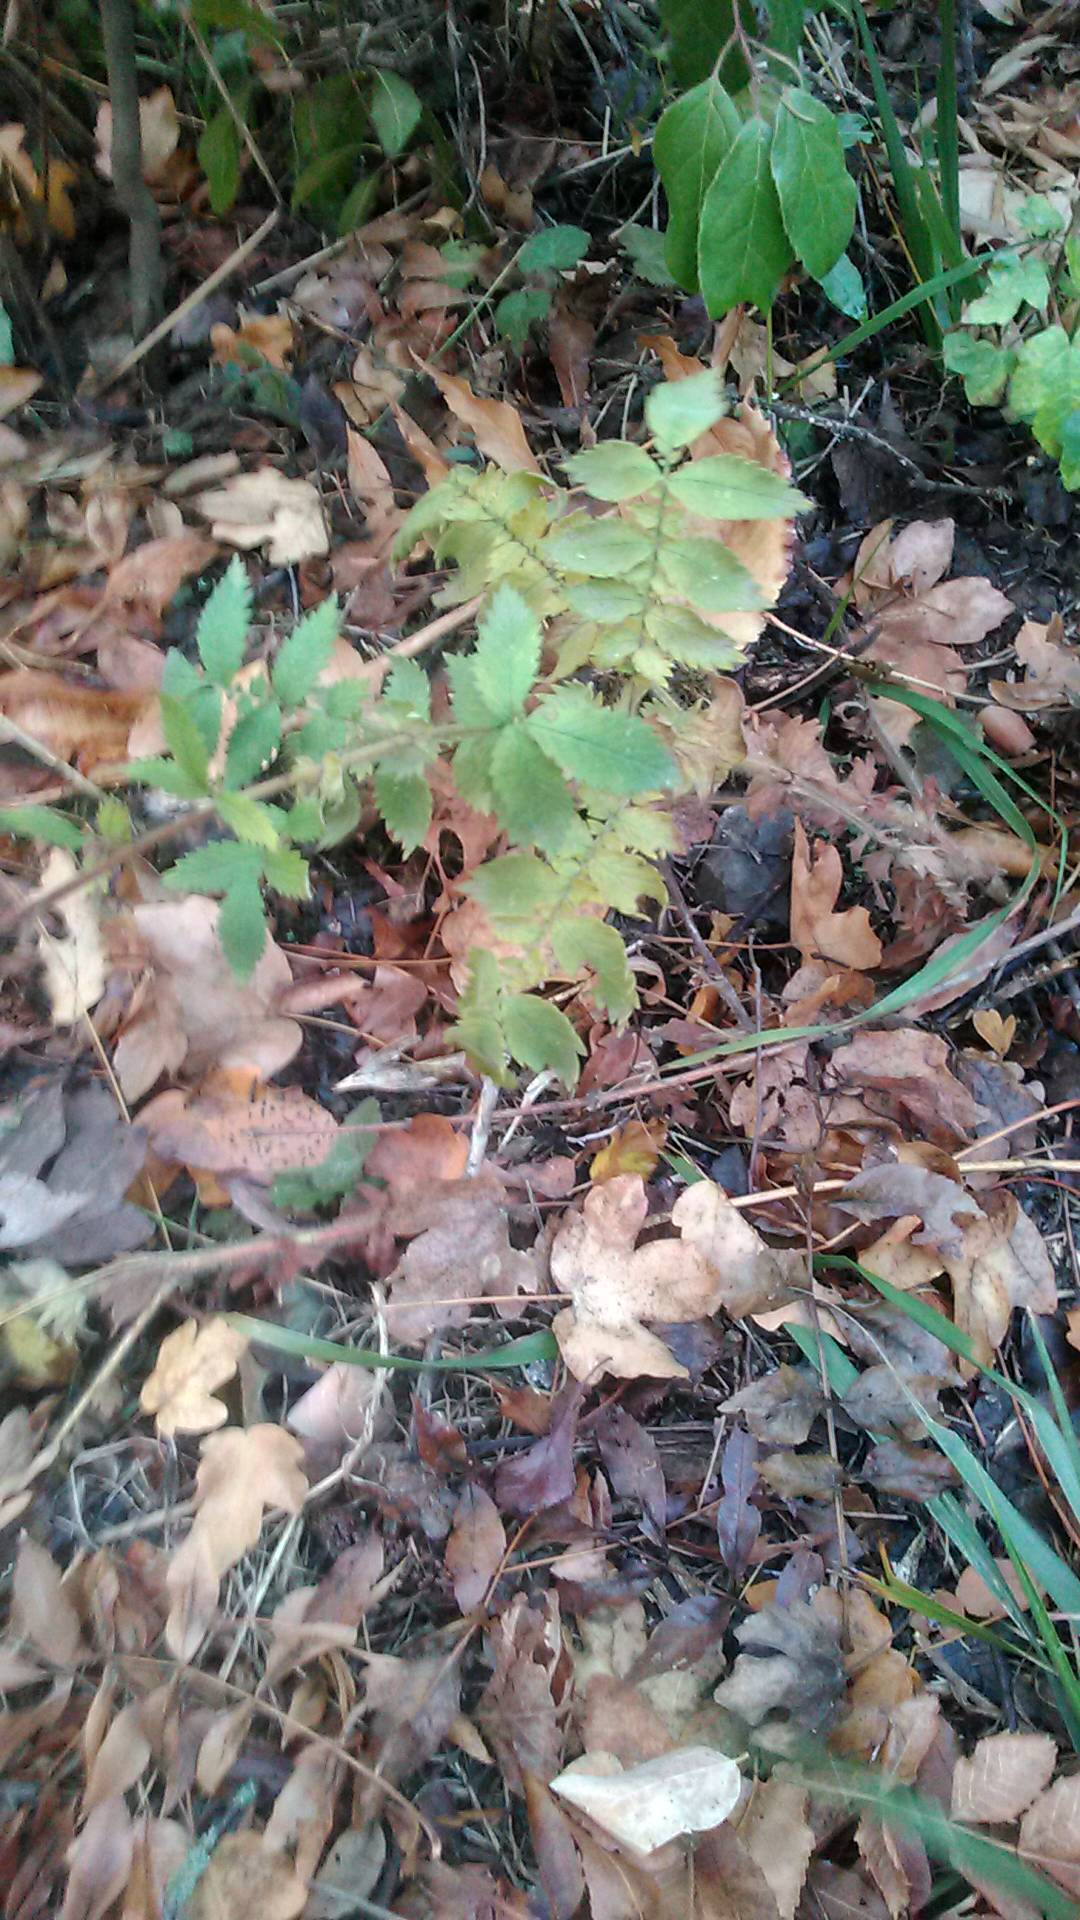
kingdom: Plantae
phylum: Tracheophyta
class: Magnoliopsida
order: Rosales
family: Rosaceae
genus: Agrimonia
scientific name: Agrimonia eupatoria
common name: Agrimony
